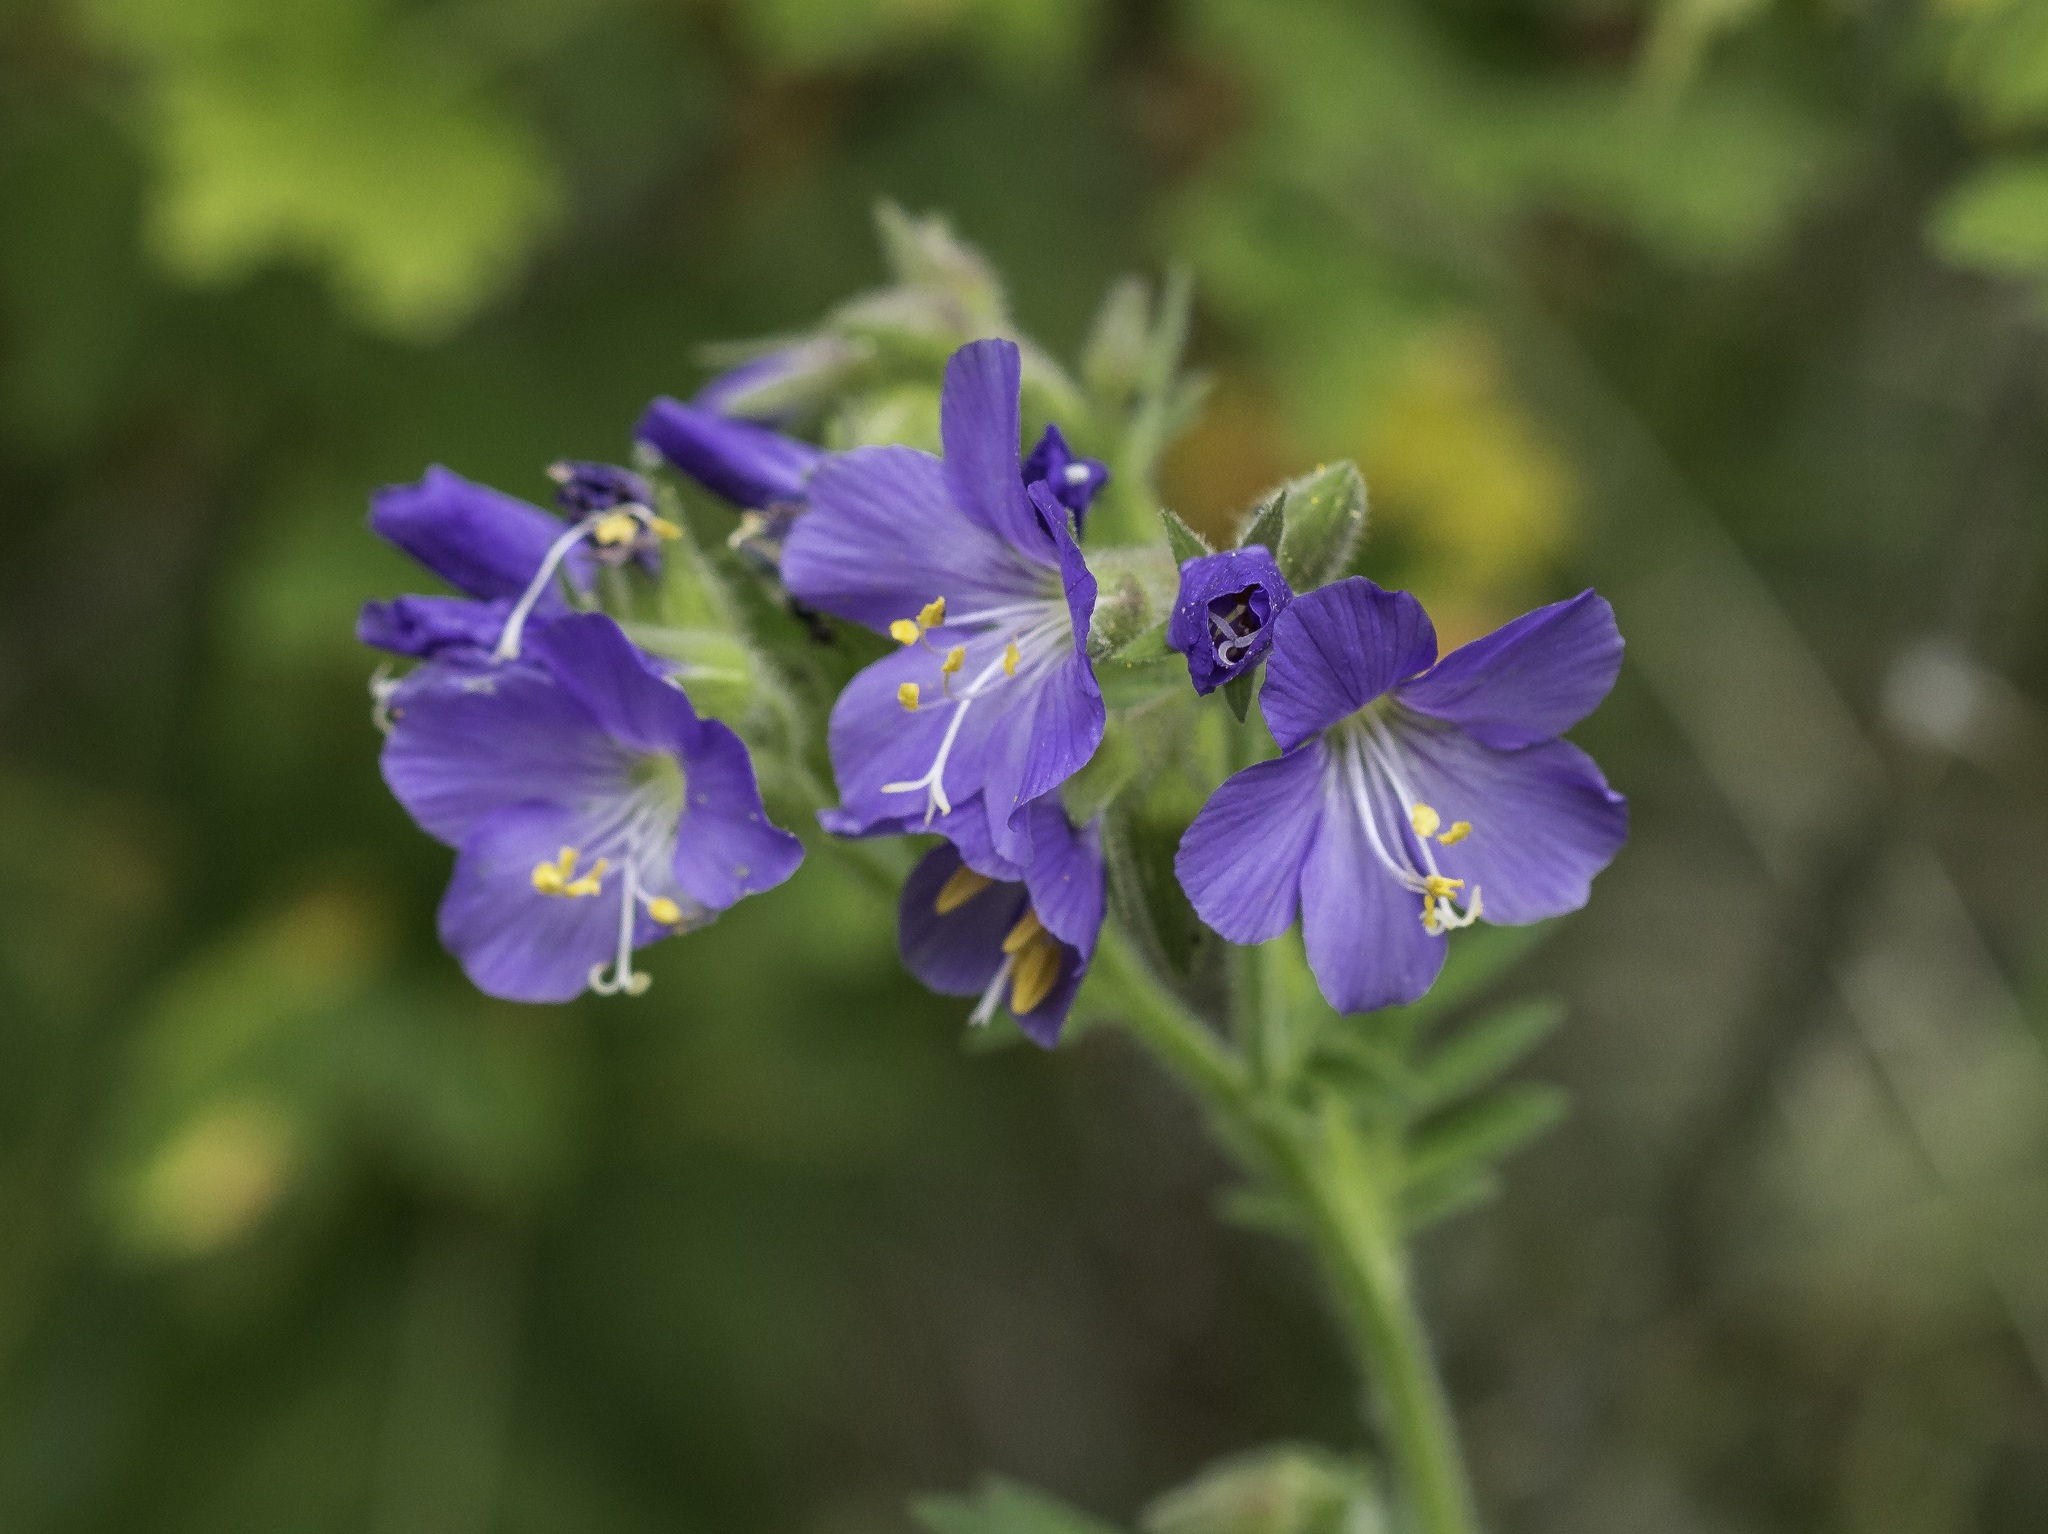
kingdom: Plantae
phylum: Tracheophyta
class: Magnoliopsida
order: Ericales
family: Polemoniaceae
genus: Polemonium
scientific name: Polemonium foliosissimum
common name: Leafy jacob's-ladder
